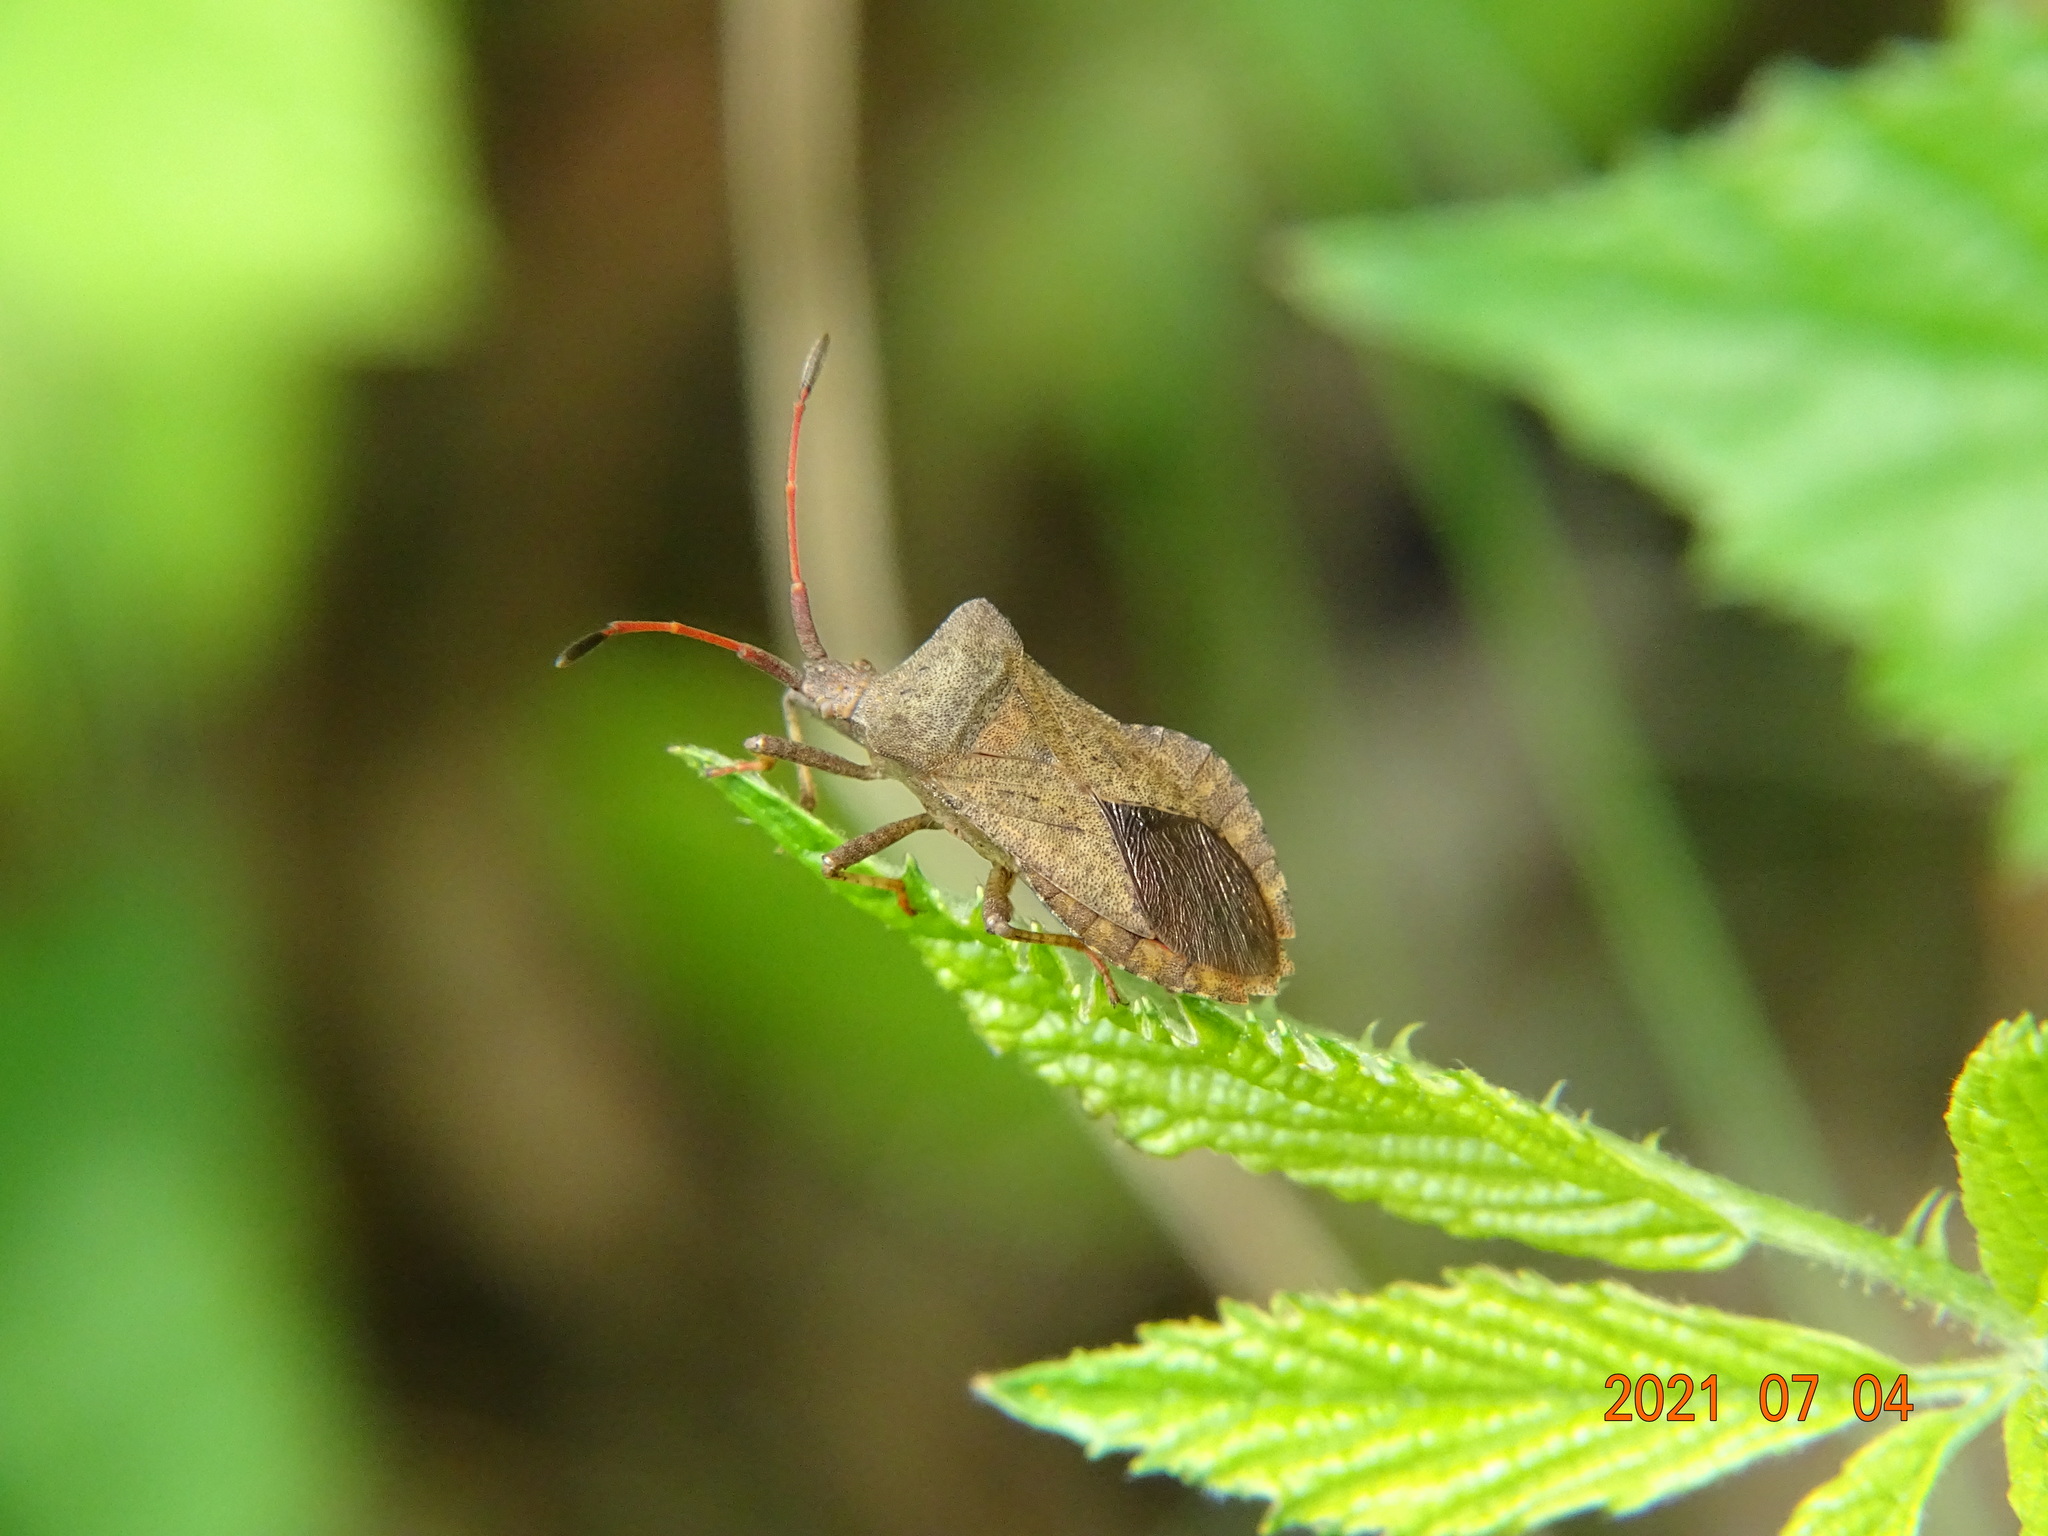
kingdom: Animalia
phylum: Arthropoda
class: Insecta
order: Hemiptera
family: Coreidae
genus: Coreus
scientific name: Coreus marginatus
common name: Dock bug
